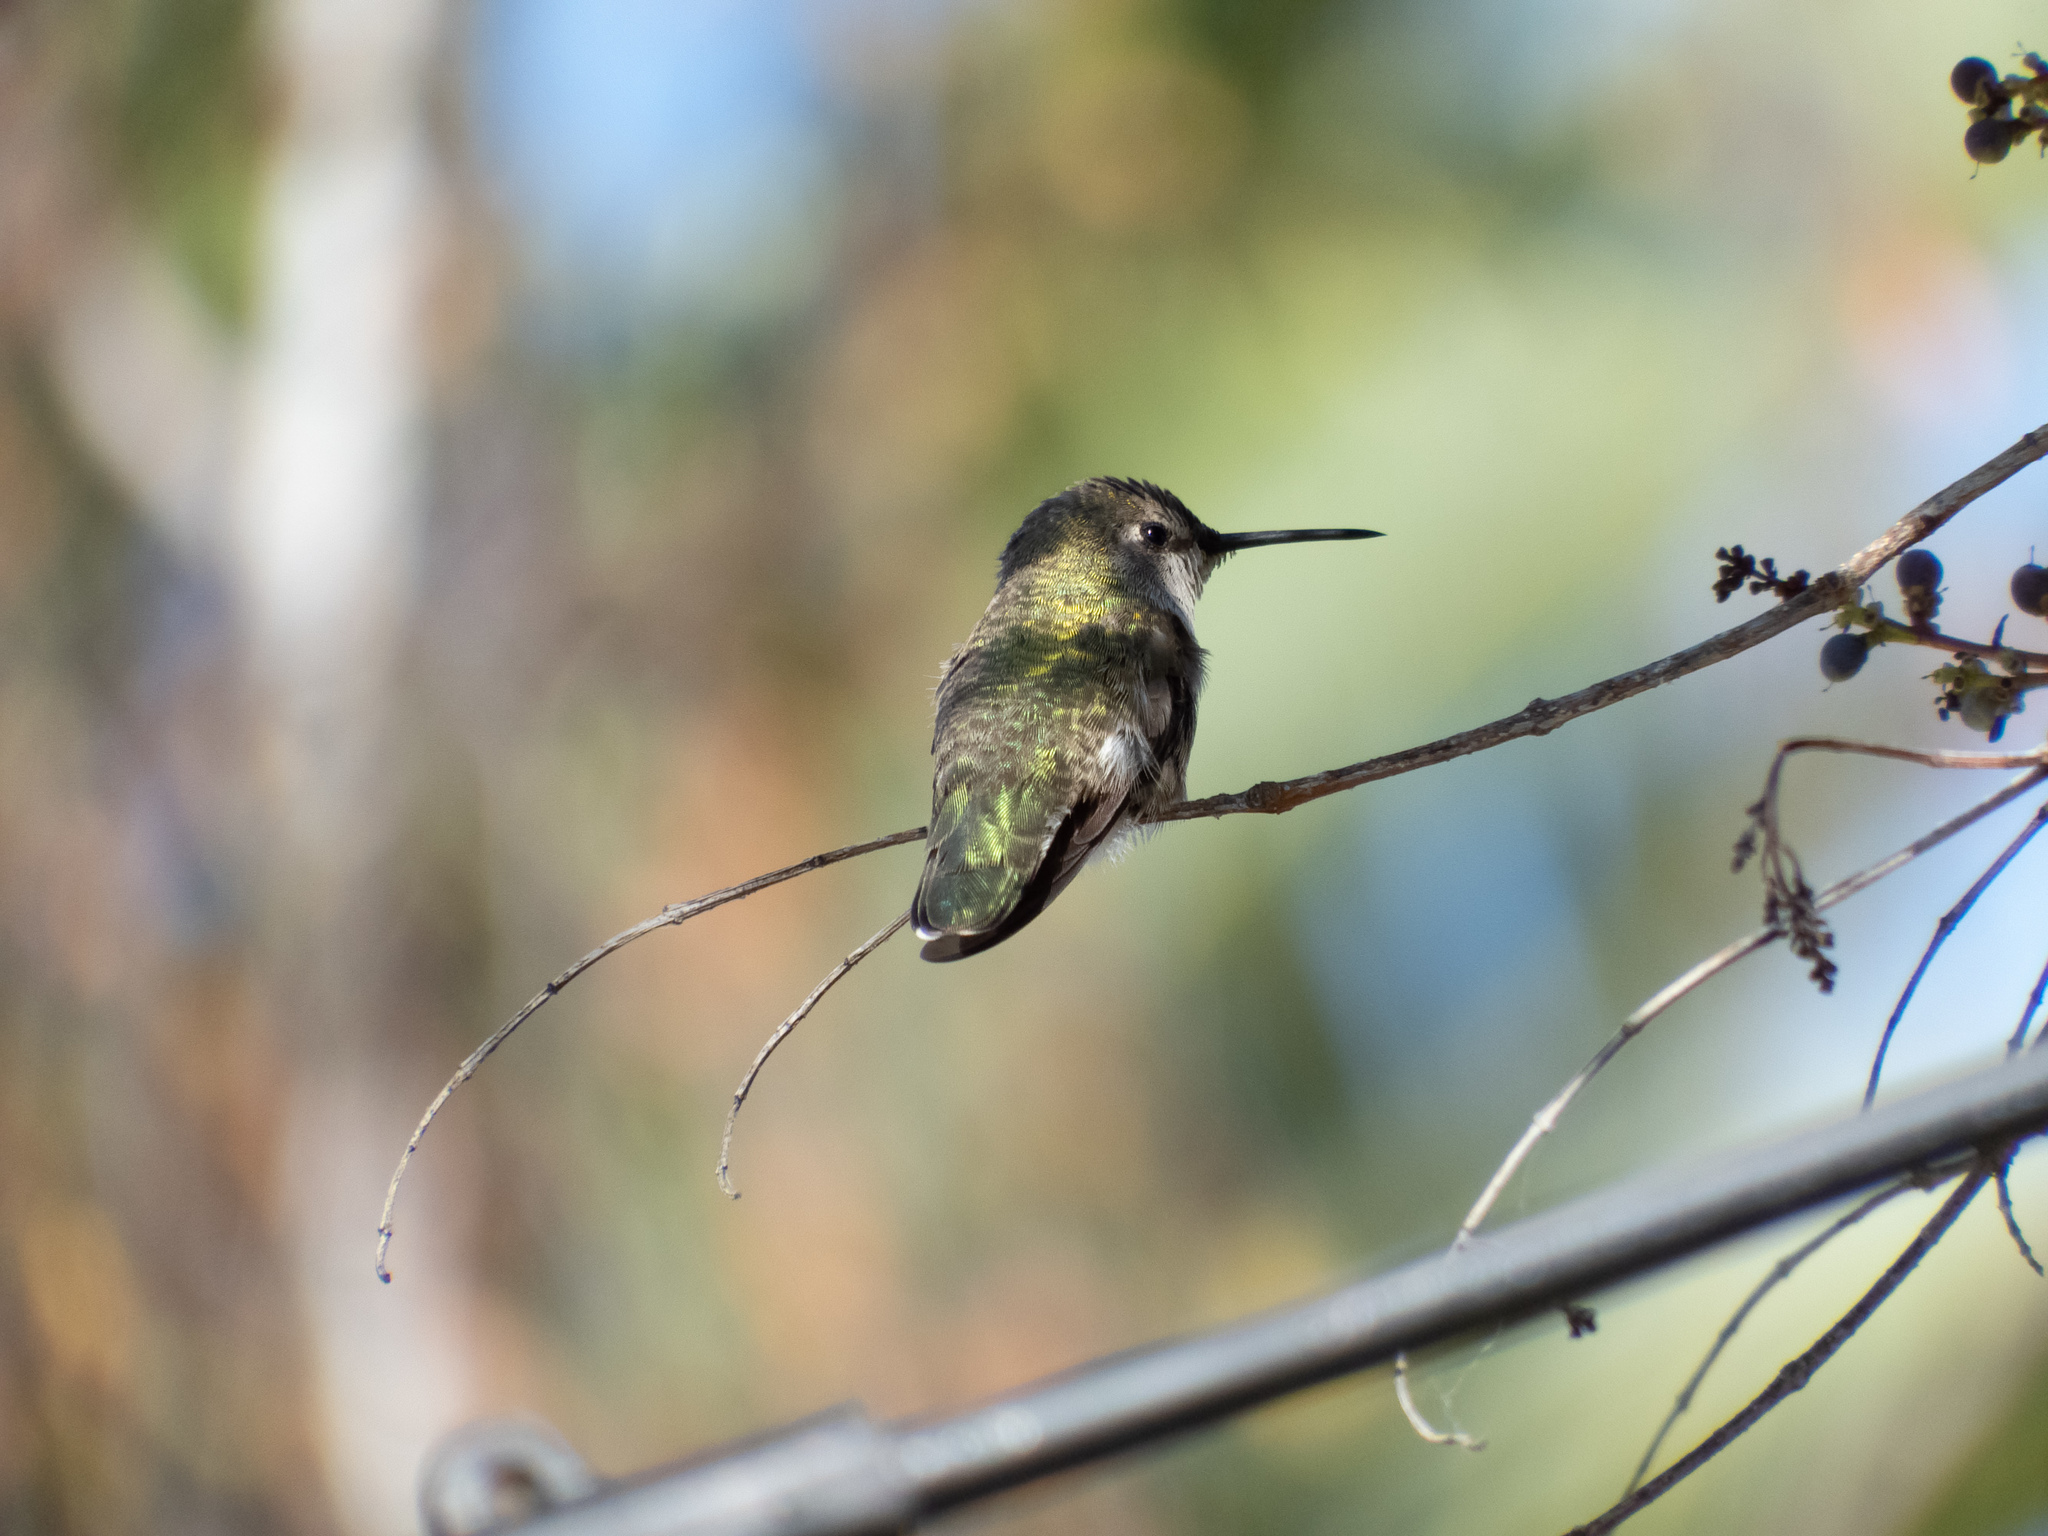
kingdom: Animalia
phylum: Chordata
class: Aves
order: Apodiformes
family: Trochilidae
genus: Calypte
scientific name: Calypte anna
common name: Anna's hummingbird
